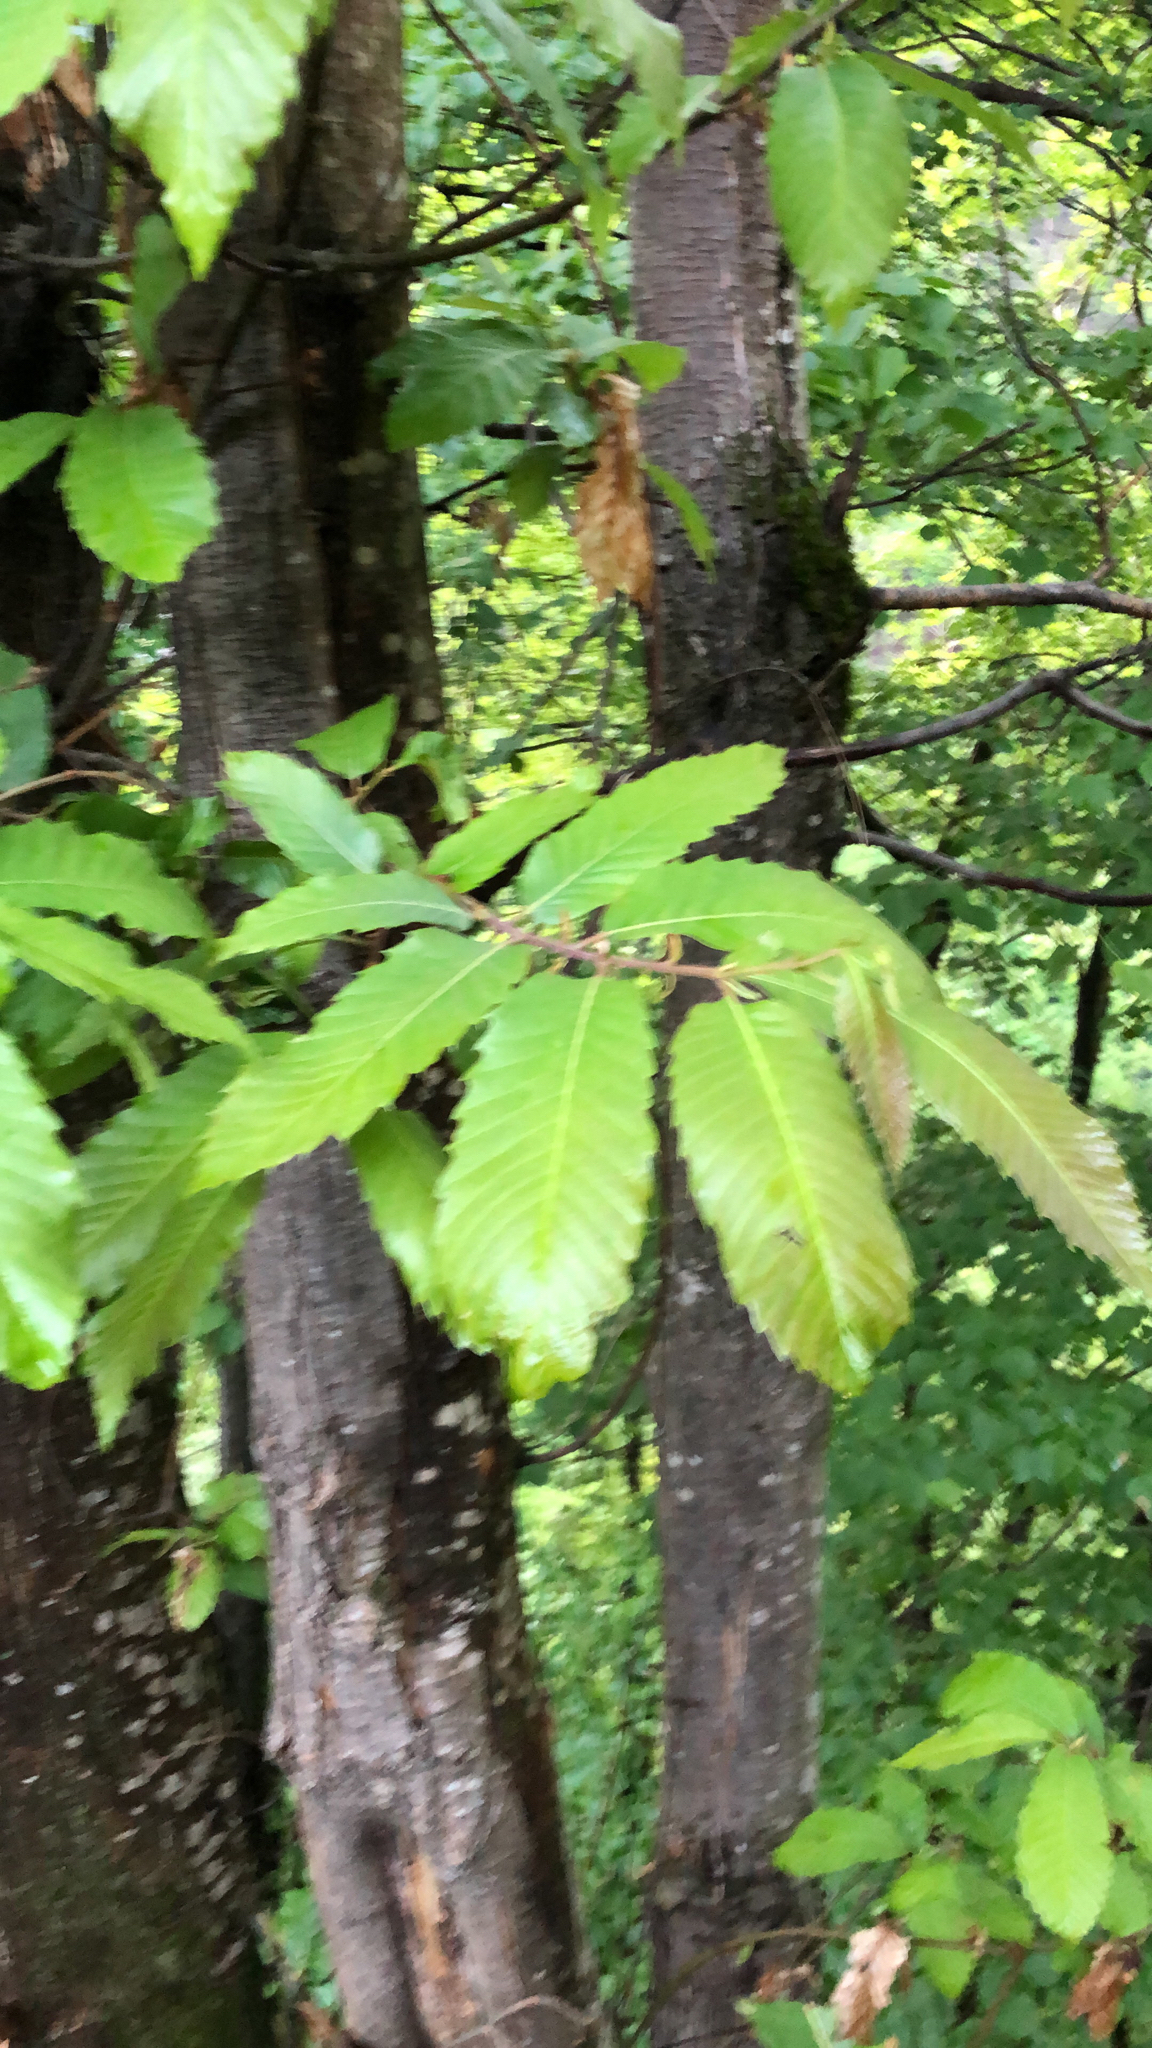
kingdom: Plantae
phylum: Tracheophyta
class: Magnoliopsida
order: Fagales
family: Fagaceae
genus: Castanea
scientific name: Castanea sativa
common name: Sweet chestnut
